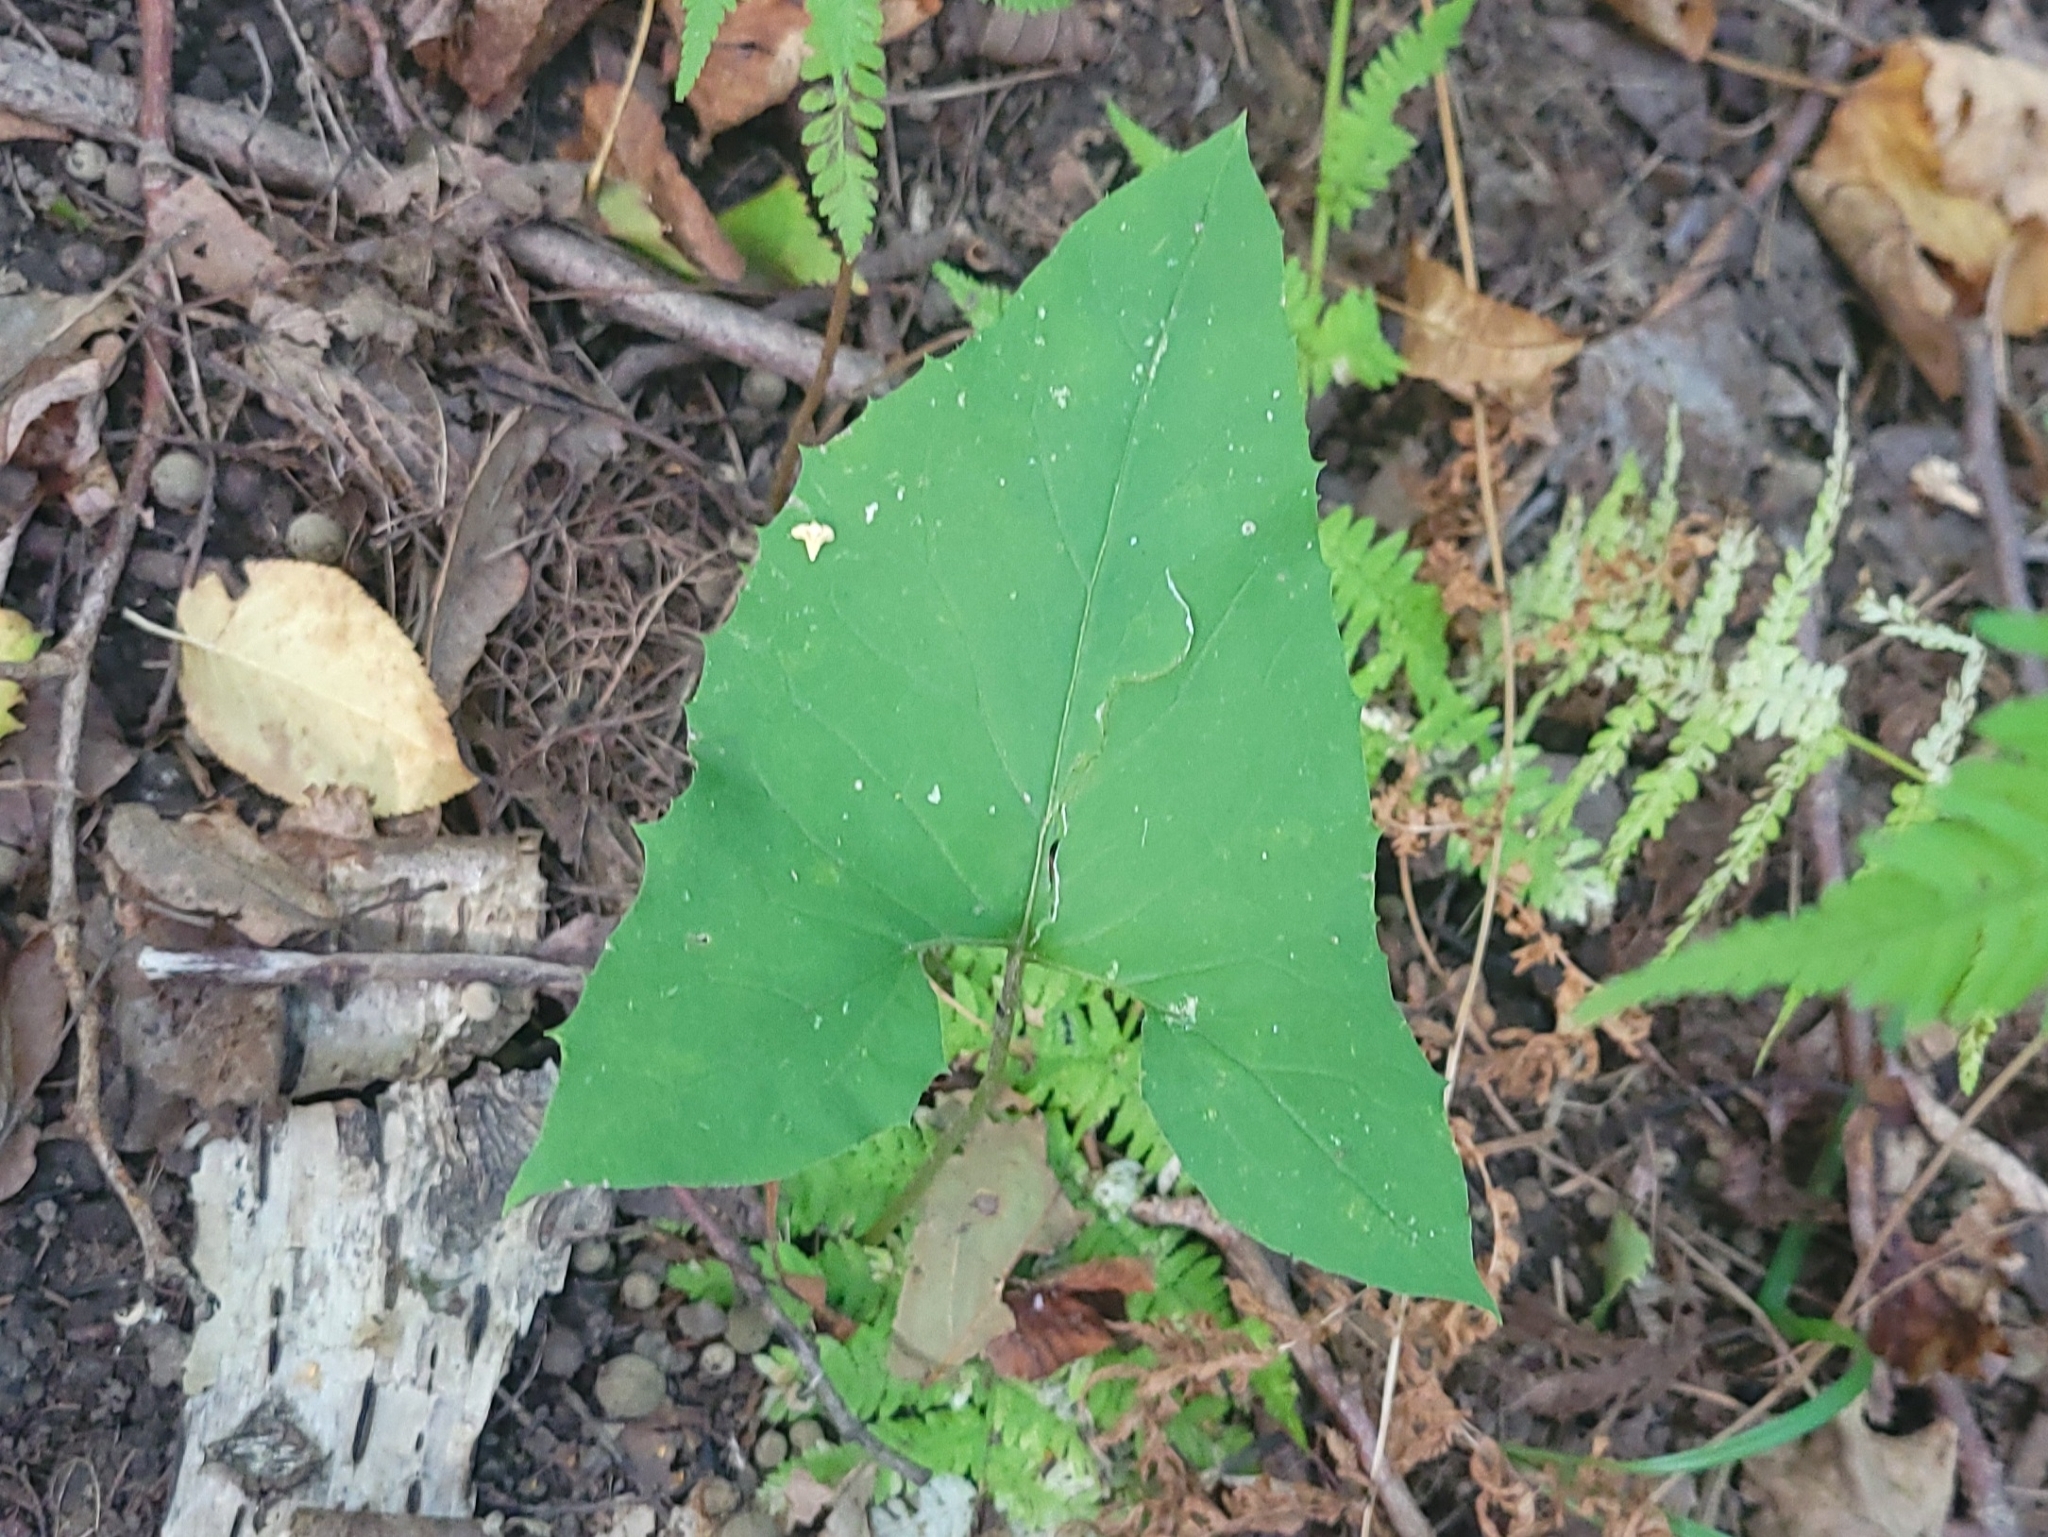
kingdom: Plantae
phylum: Tracheophyta
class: Magnoliopsida
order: Asterales
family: Asteraceae
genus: Nabalus
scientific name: Nabalus
